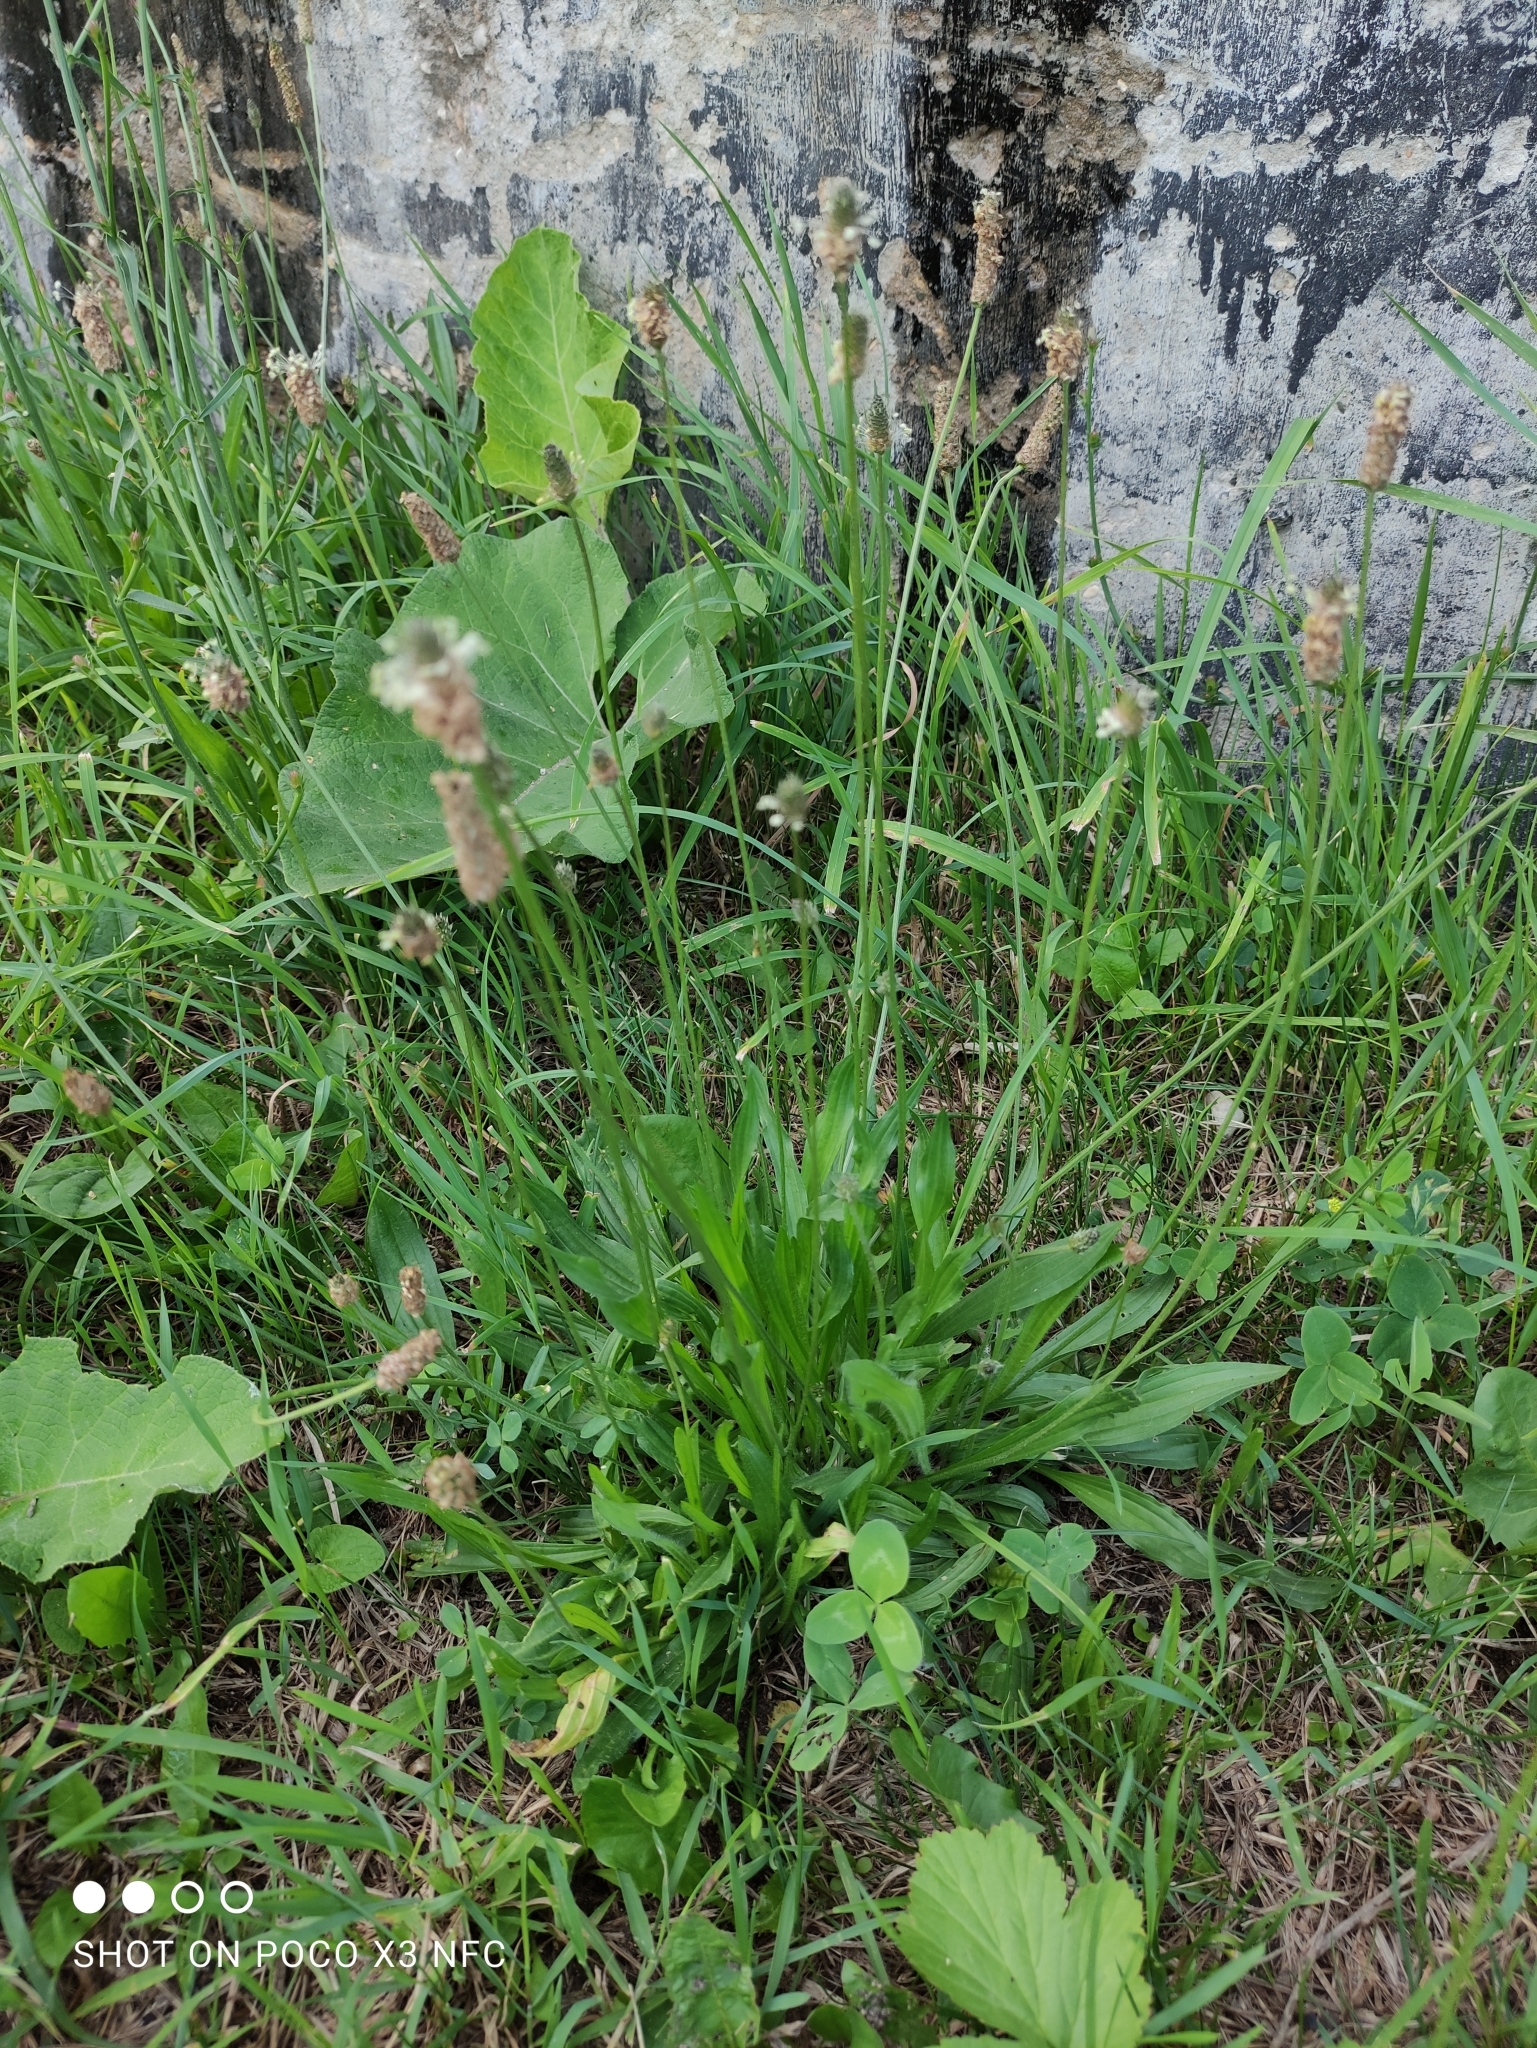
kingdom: Plantae
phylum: Tracheophyta
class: Magnoliopsida
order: Lamiales
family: Plantaginaceae
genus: Plantago
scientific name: Plantago lanceolata
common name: Ribwort plantain
